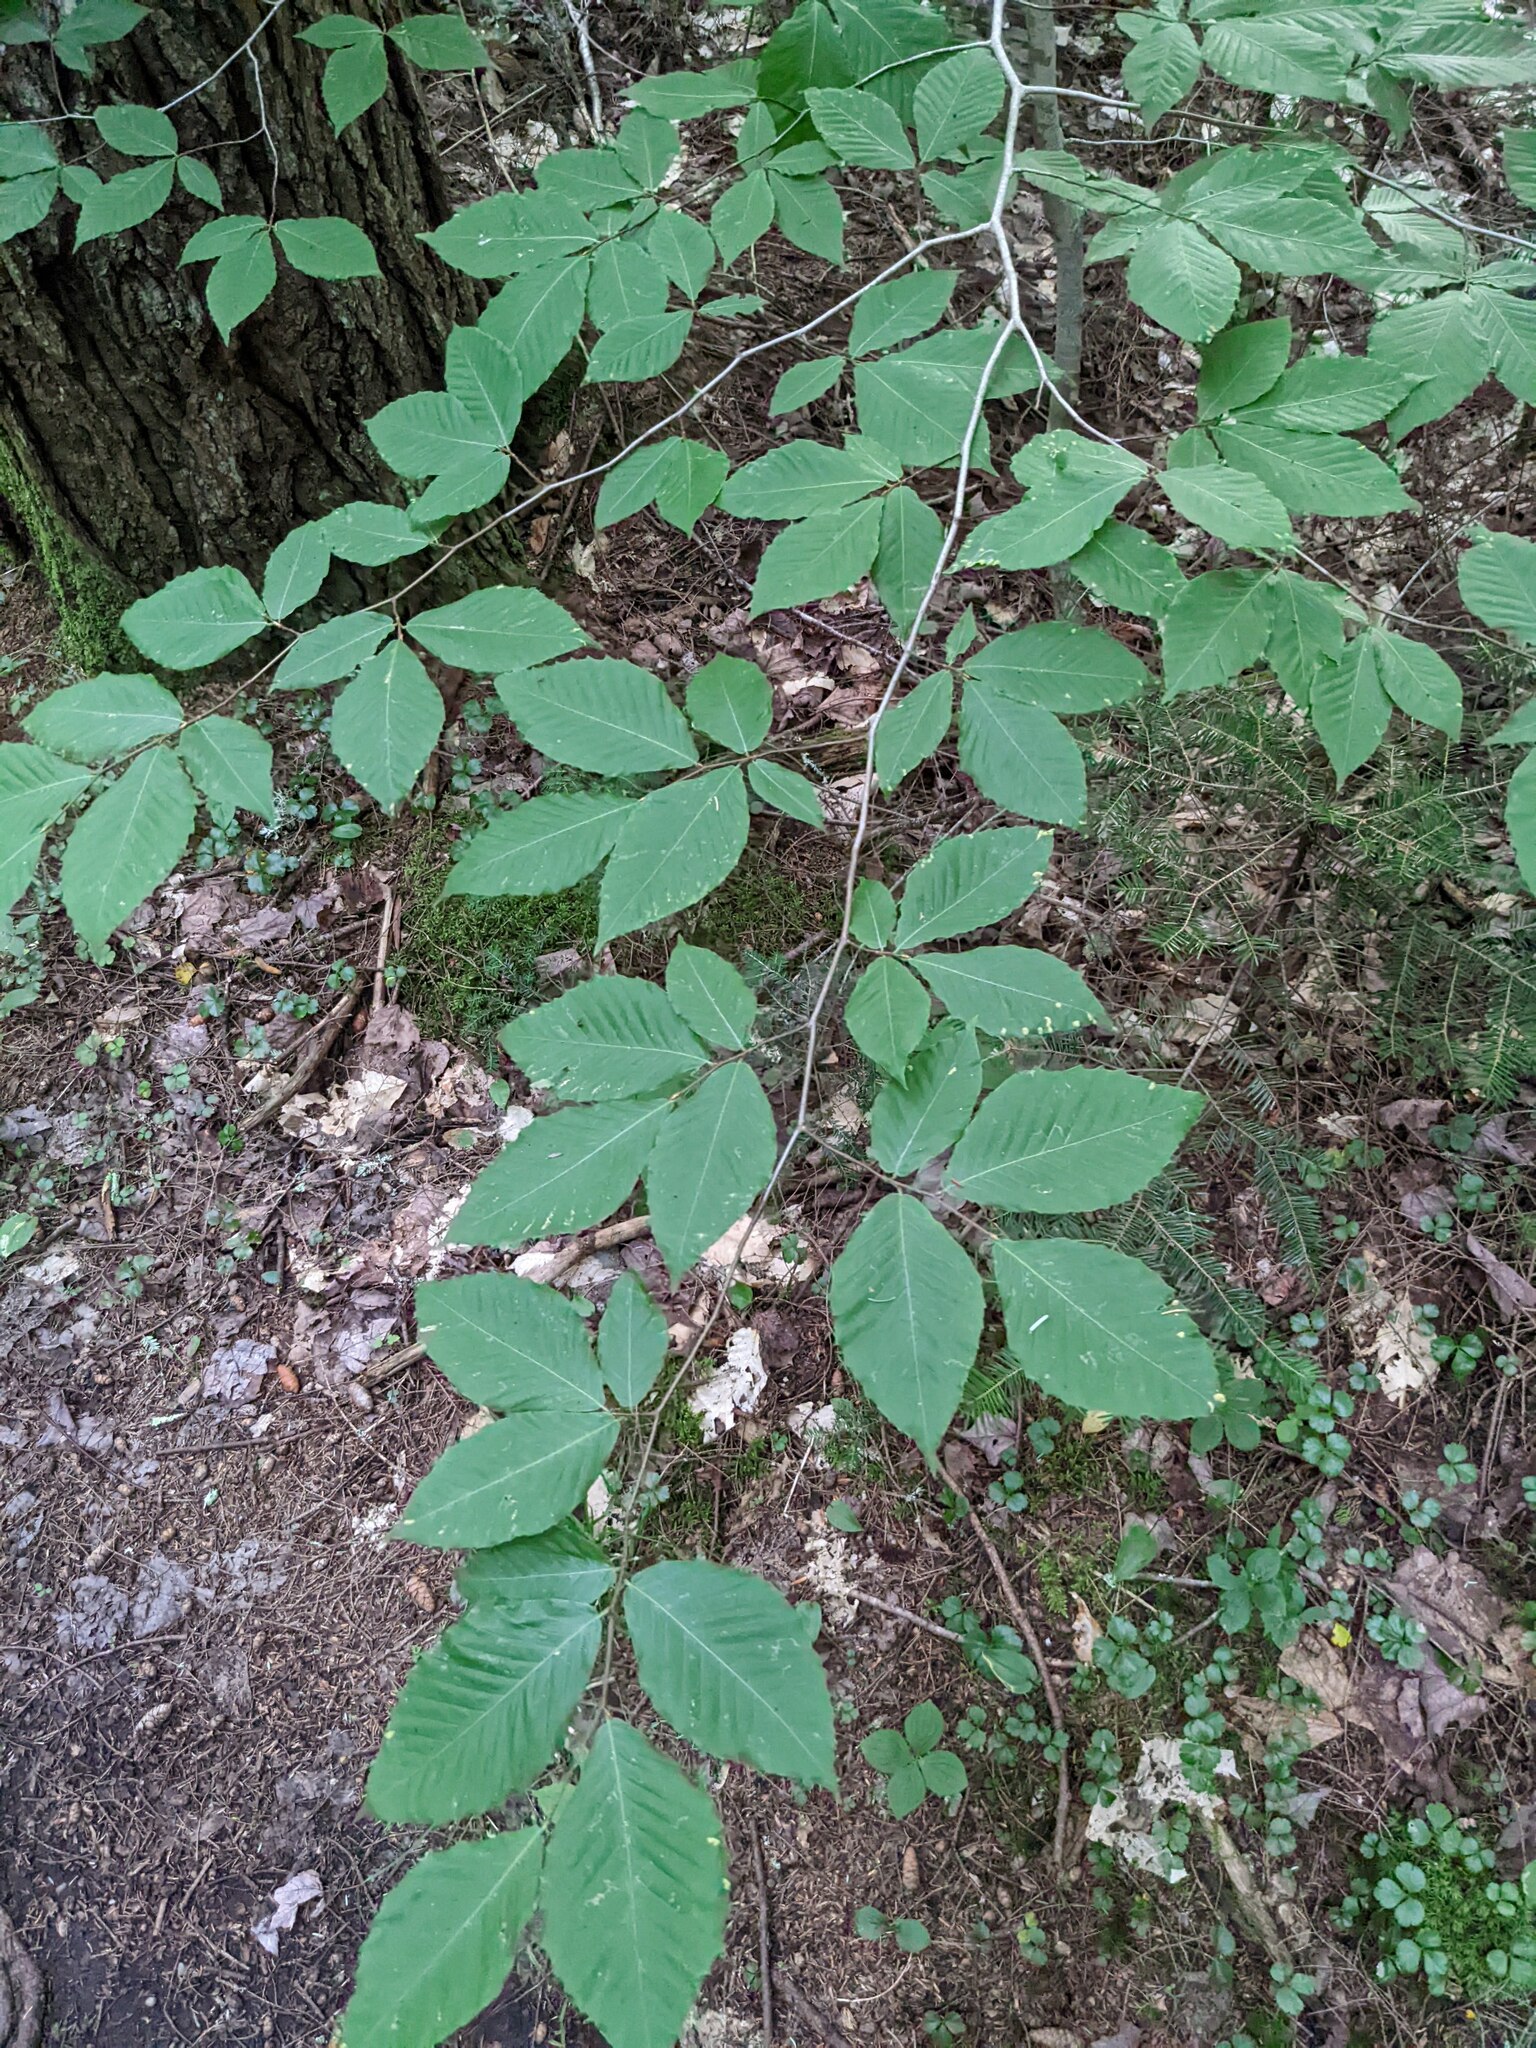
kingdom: Plantae
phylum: Tracheophyta
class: Magnoliopsida
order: Fagales
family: Fagaceae
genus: Fagus
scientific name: Fagus grandifolia
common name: American beech
